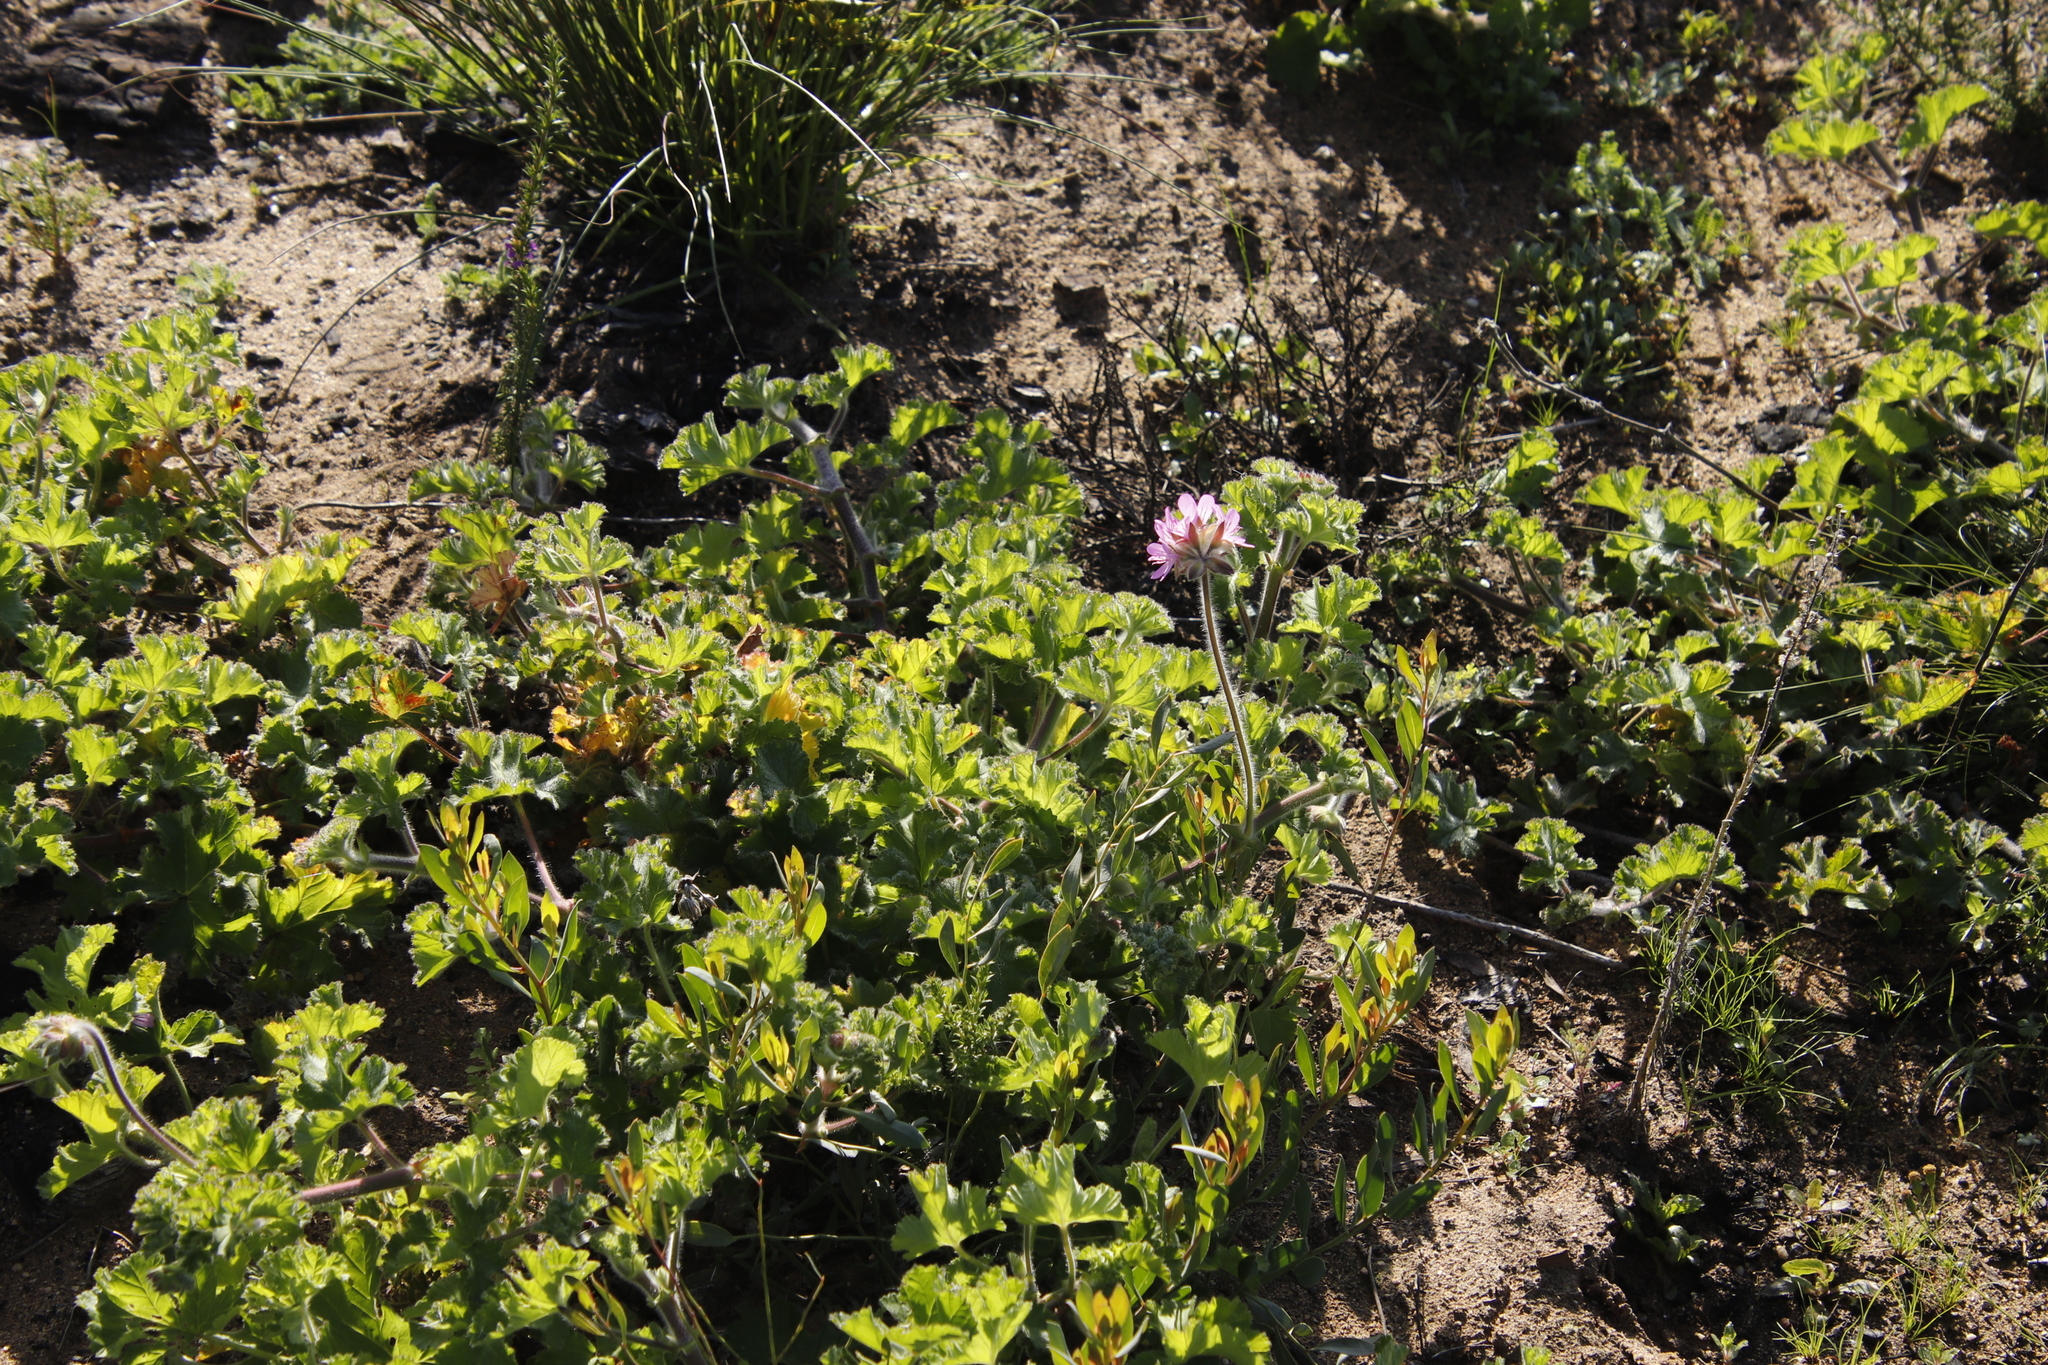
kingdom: Plantae
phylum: Tracheophyta
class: Magnoliopsida
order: Geraniales
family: Geraniaceae
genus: Pelargonium
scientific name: Pelargonium capitatum
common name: Rose scented geranium
